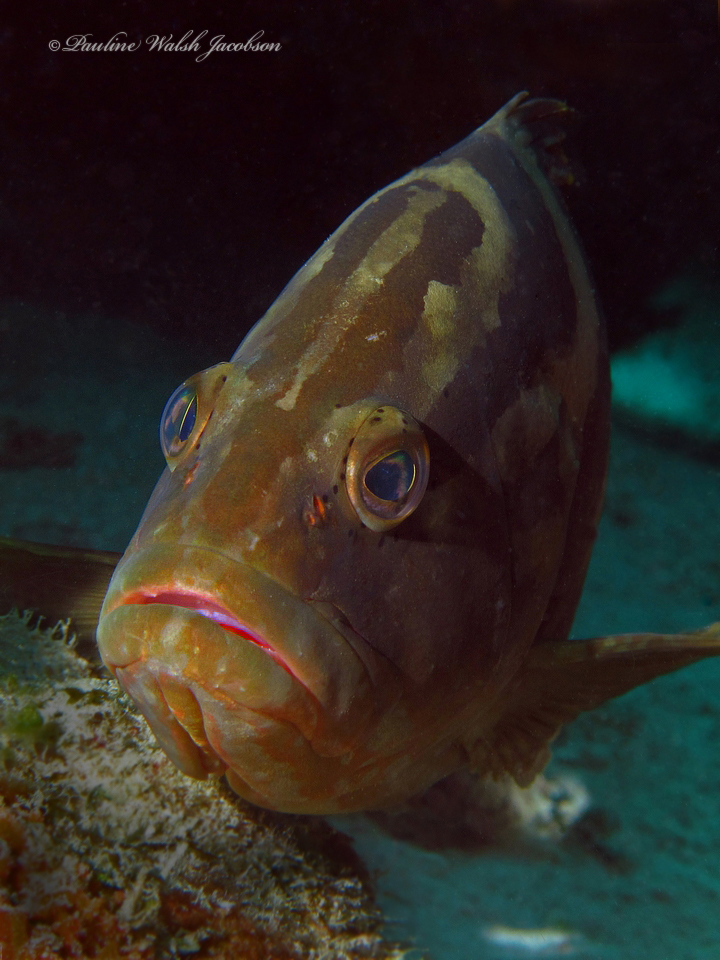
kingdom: Animalia
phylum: Chordata
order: Perciformes
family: Serranidae
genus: Epinephelus
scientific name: Epinephelus striatus
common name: Nassau grouper
